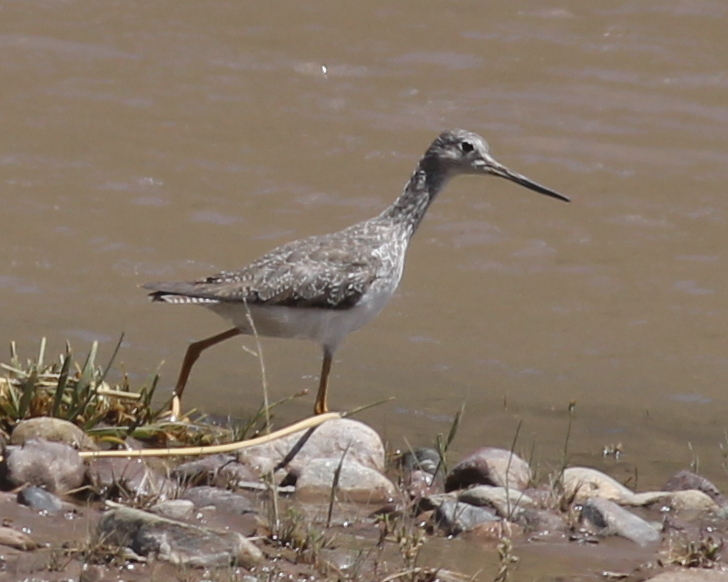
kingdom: Animalia
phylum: Chordata
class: Aves
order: Charadriiformes
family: Scolopacidae
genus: Tringa
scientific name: Tringa melanoleuca
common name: Greater yellowlegs
